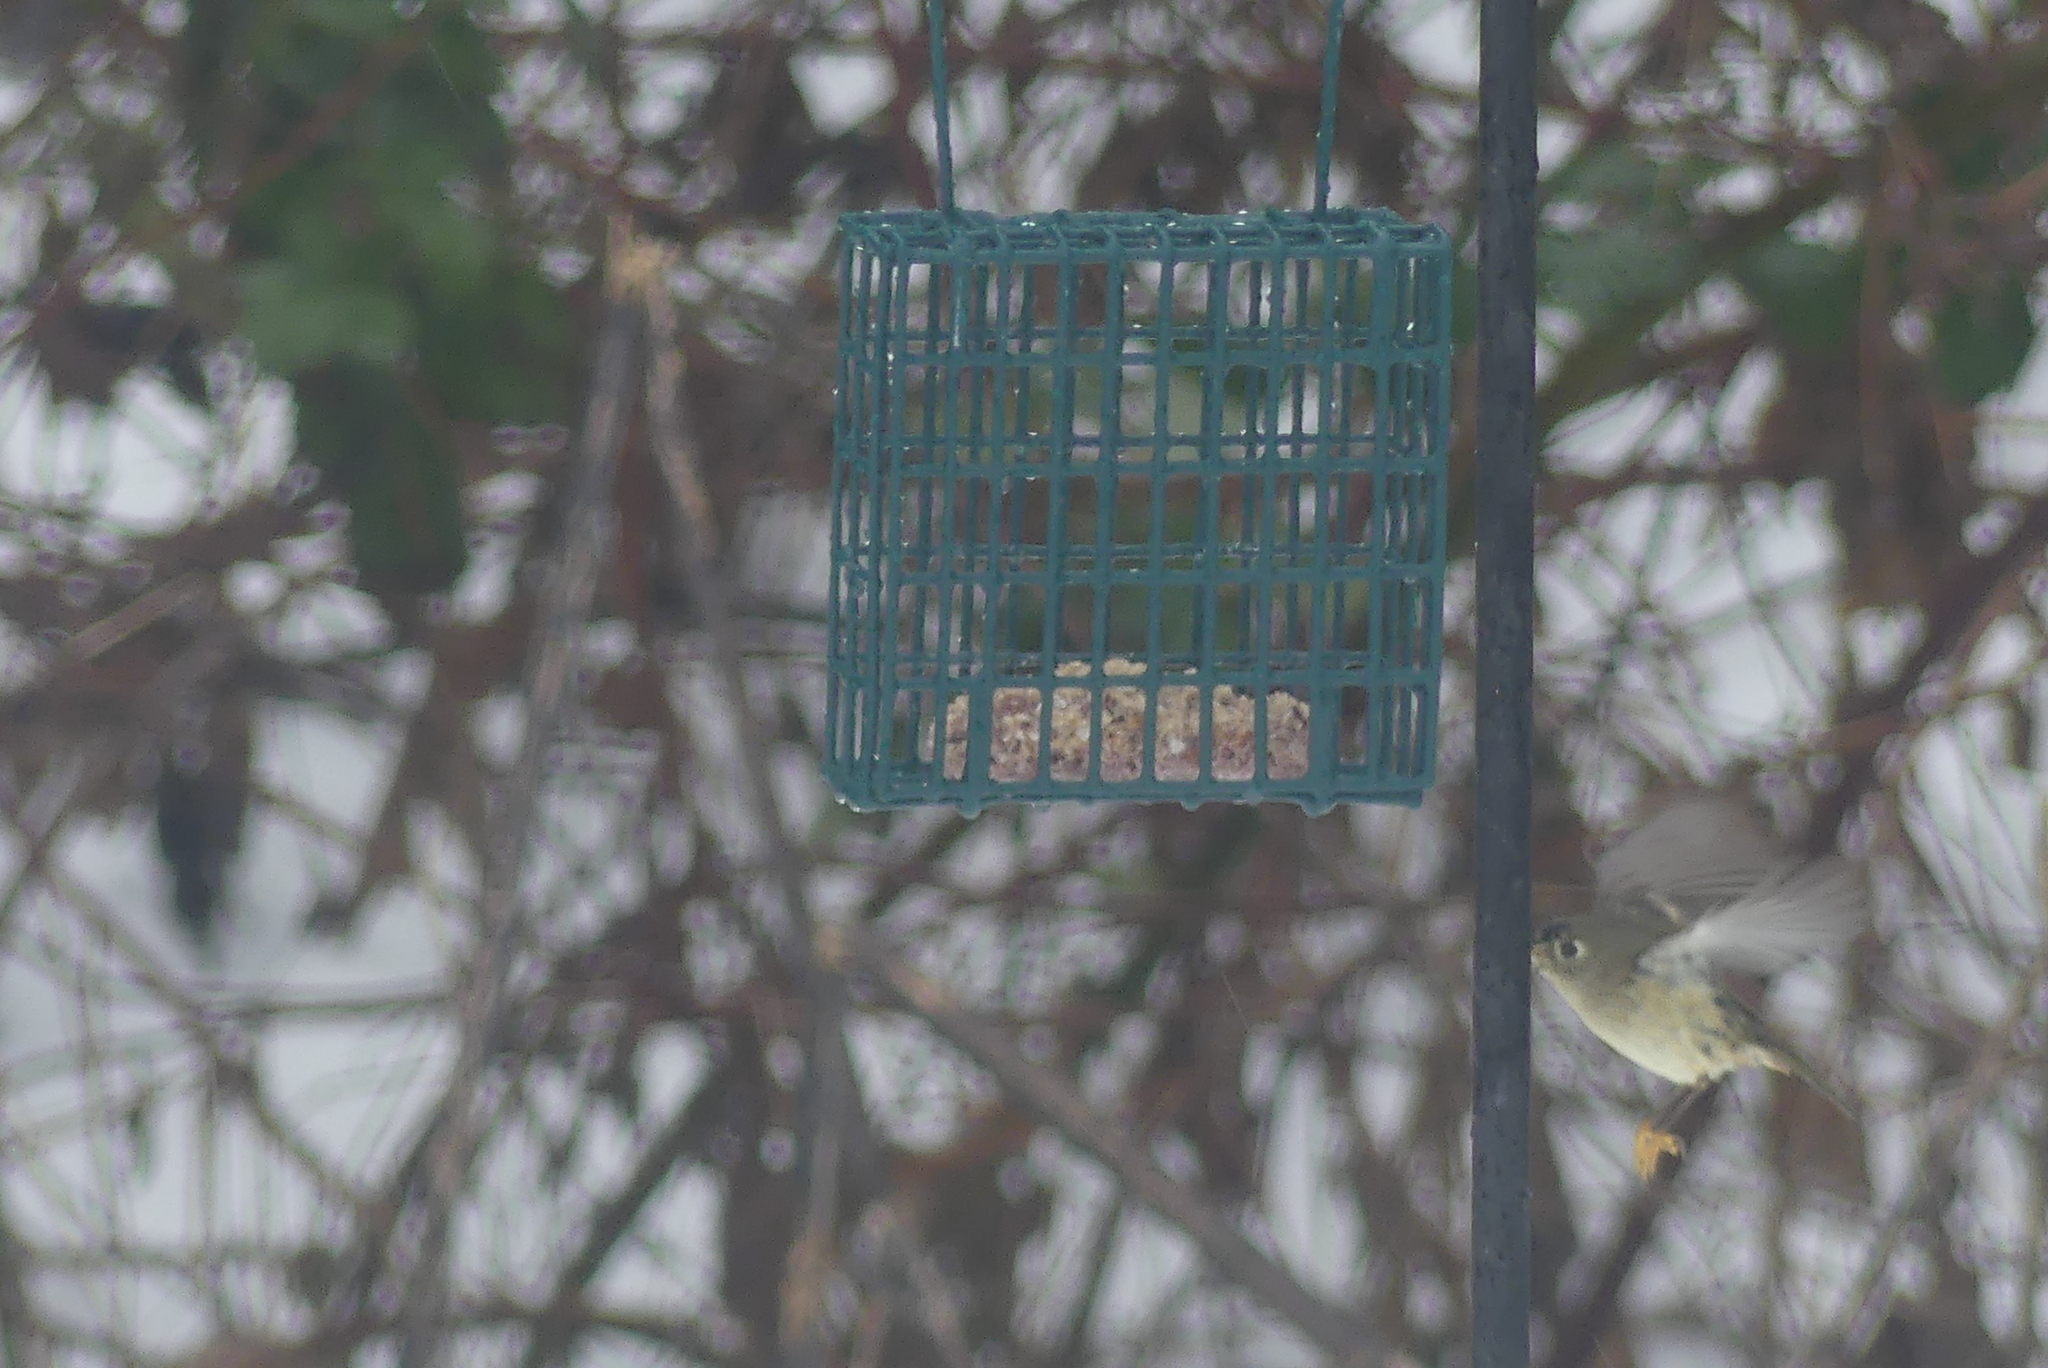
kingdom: Animalia
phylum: Chordata
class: Aves
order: Passeriformes
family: Regulidae
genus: Regulus
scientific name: Regulus calendula
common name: Ruby-crowned kinglet
